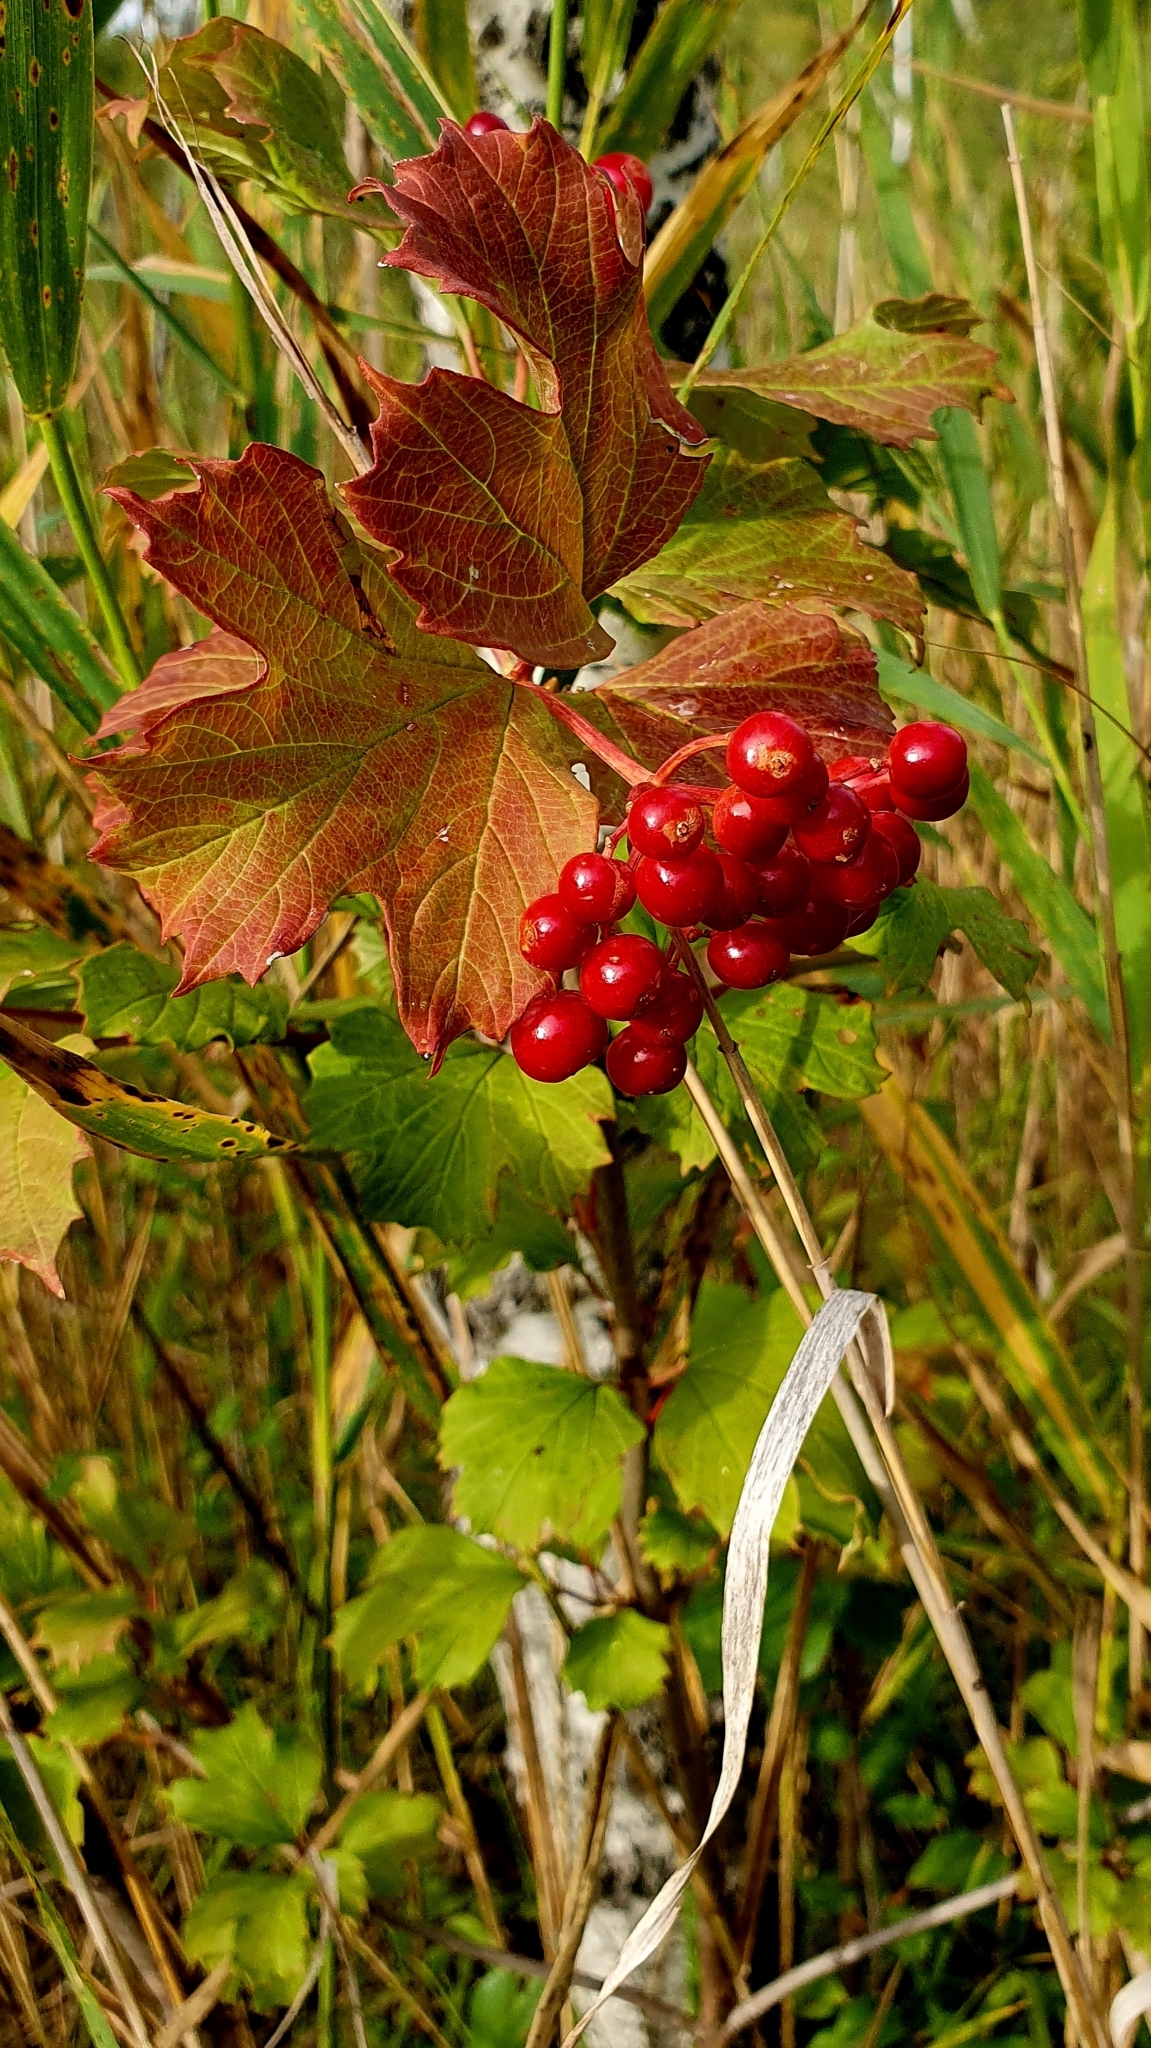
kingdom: Plantae
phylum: Tracheophyta
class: Magnoliopsida
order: Dipsacales
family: Viburnaceae
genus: Viburnum
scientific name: Viburnum opulus
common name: Guelder-rose
